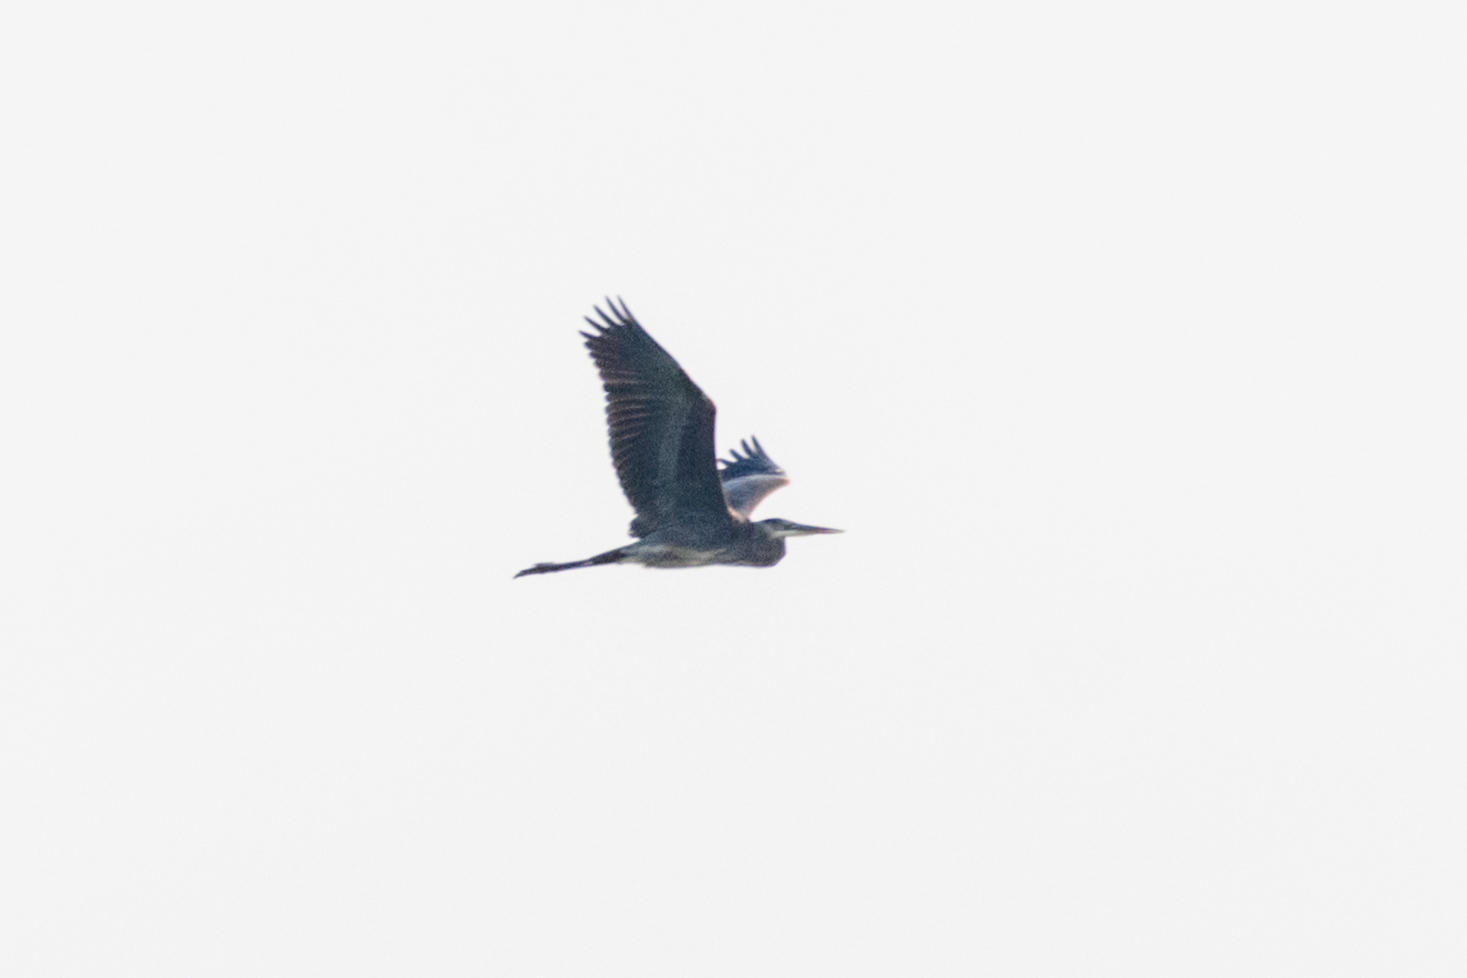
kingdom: Animalia
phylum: Chordata
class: Aves
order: Pelecaniformes
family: Ardeidae
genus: Ardea
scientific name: Ardea herodias
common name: Great blue heron
